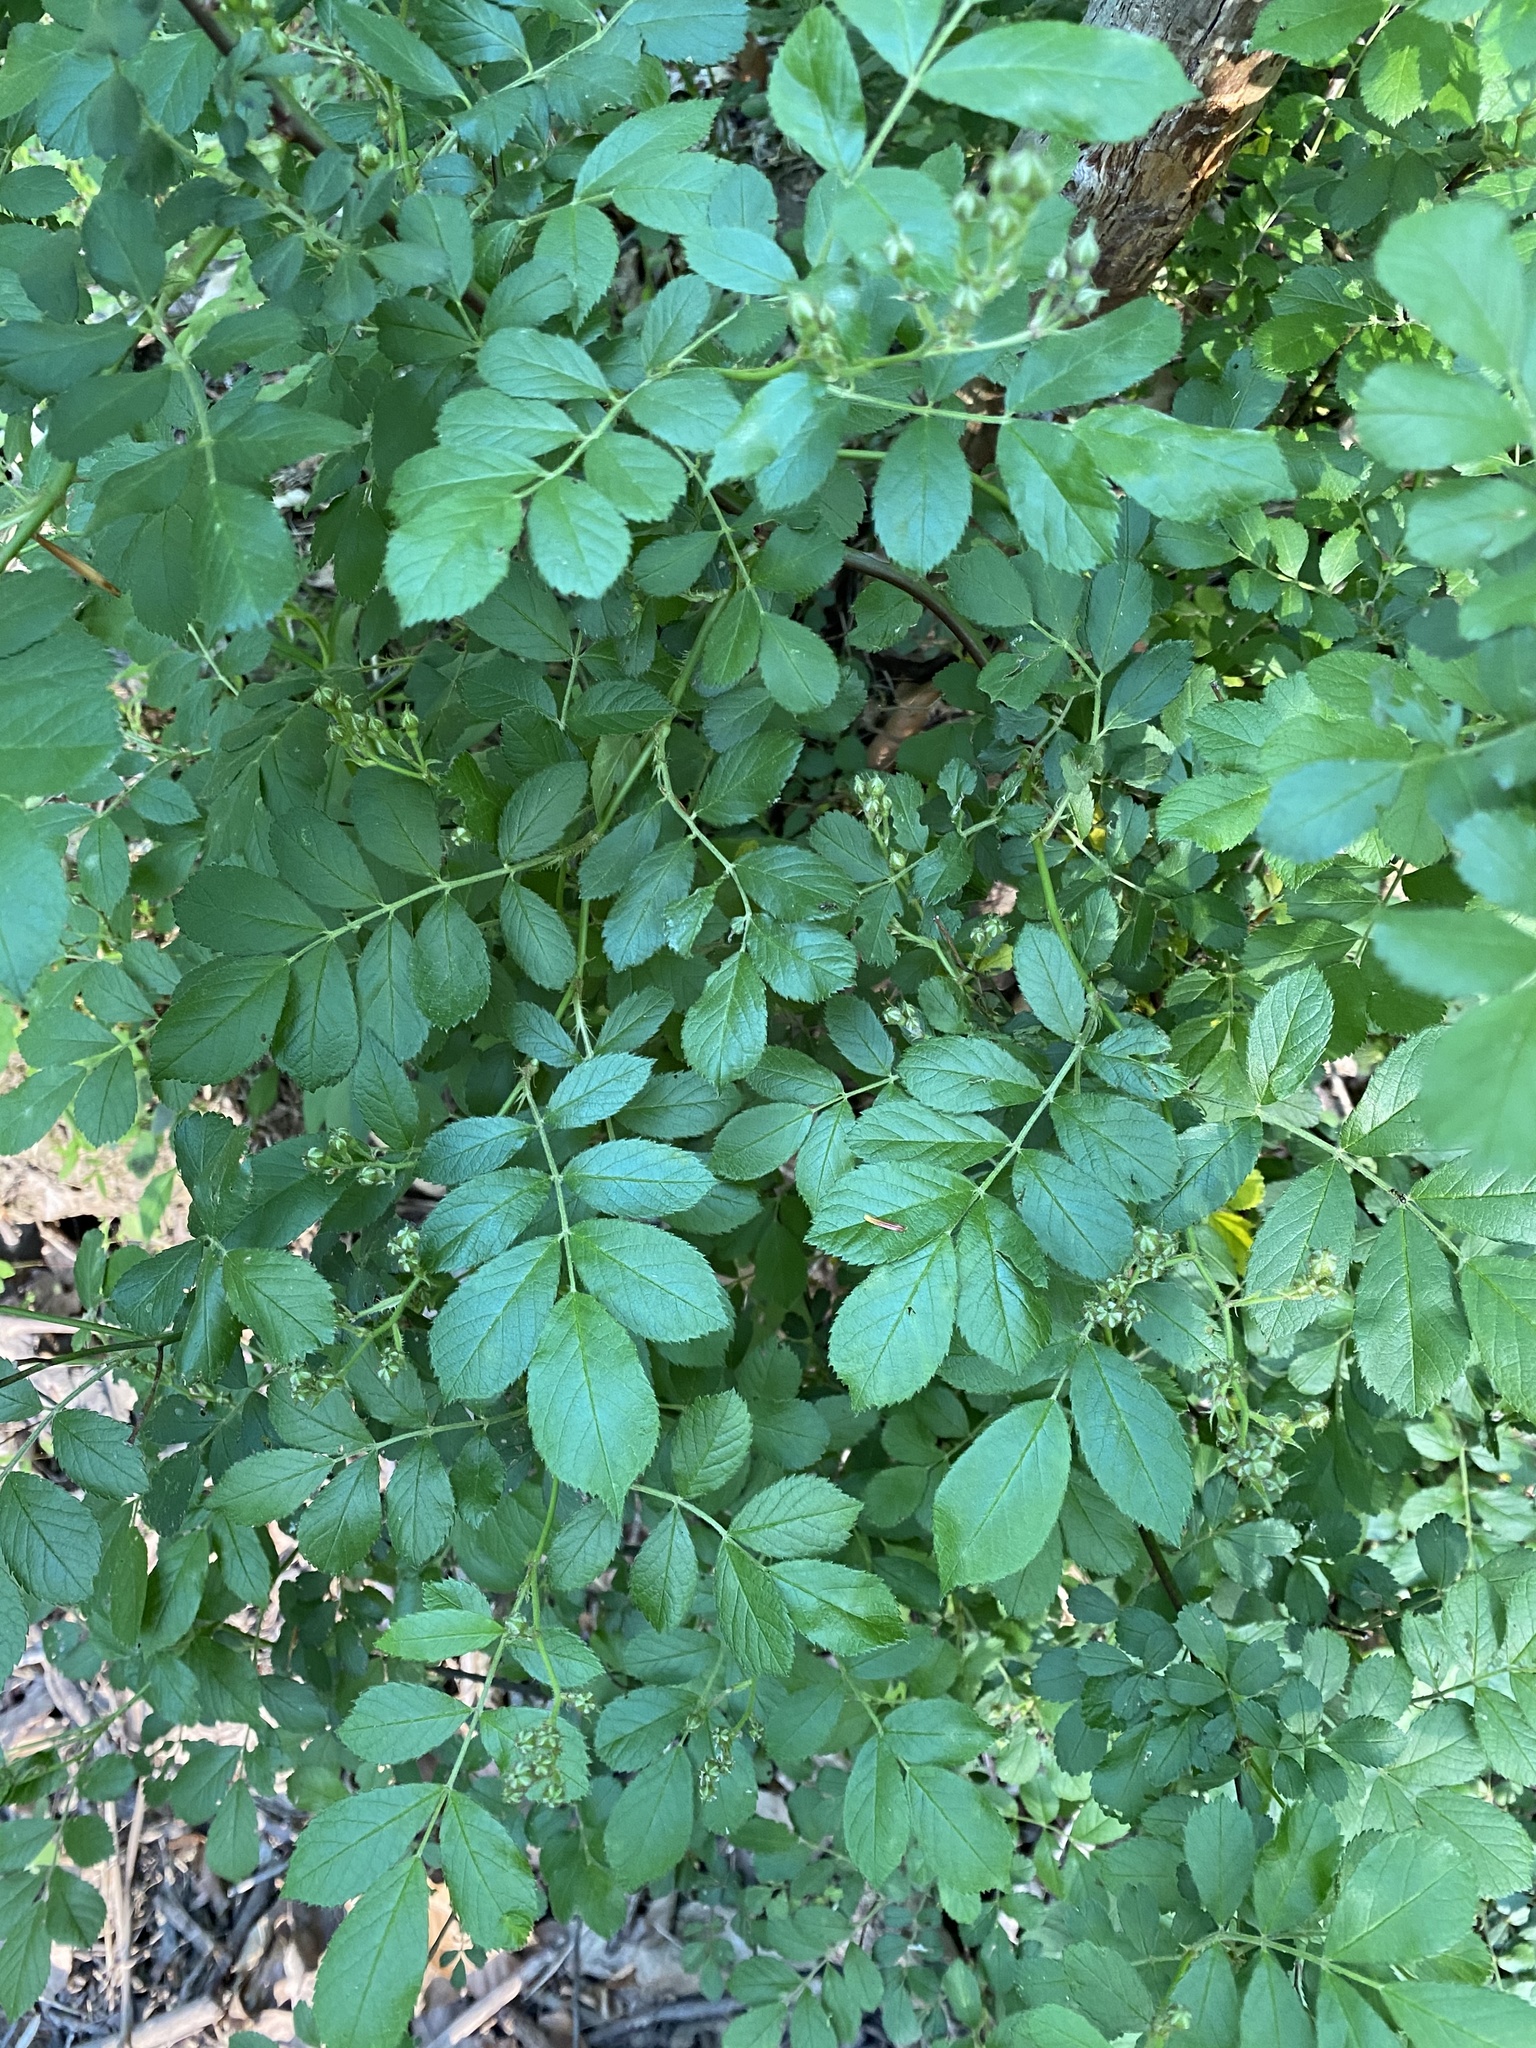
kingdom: Plantae
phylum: Tracheophyta
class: Magnoliopsida
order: Rosales
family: Rosaceae
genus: Rosa
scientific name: Rosa multiflora
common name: Multiflora rose
